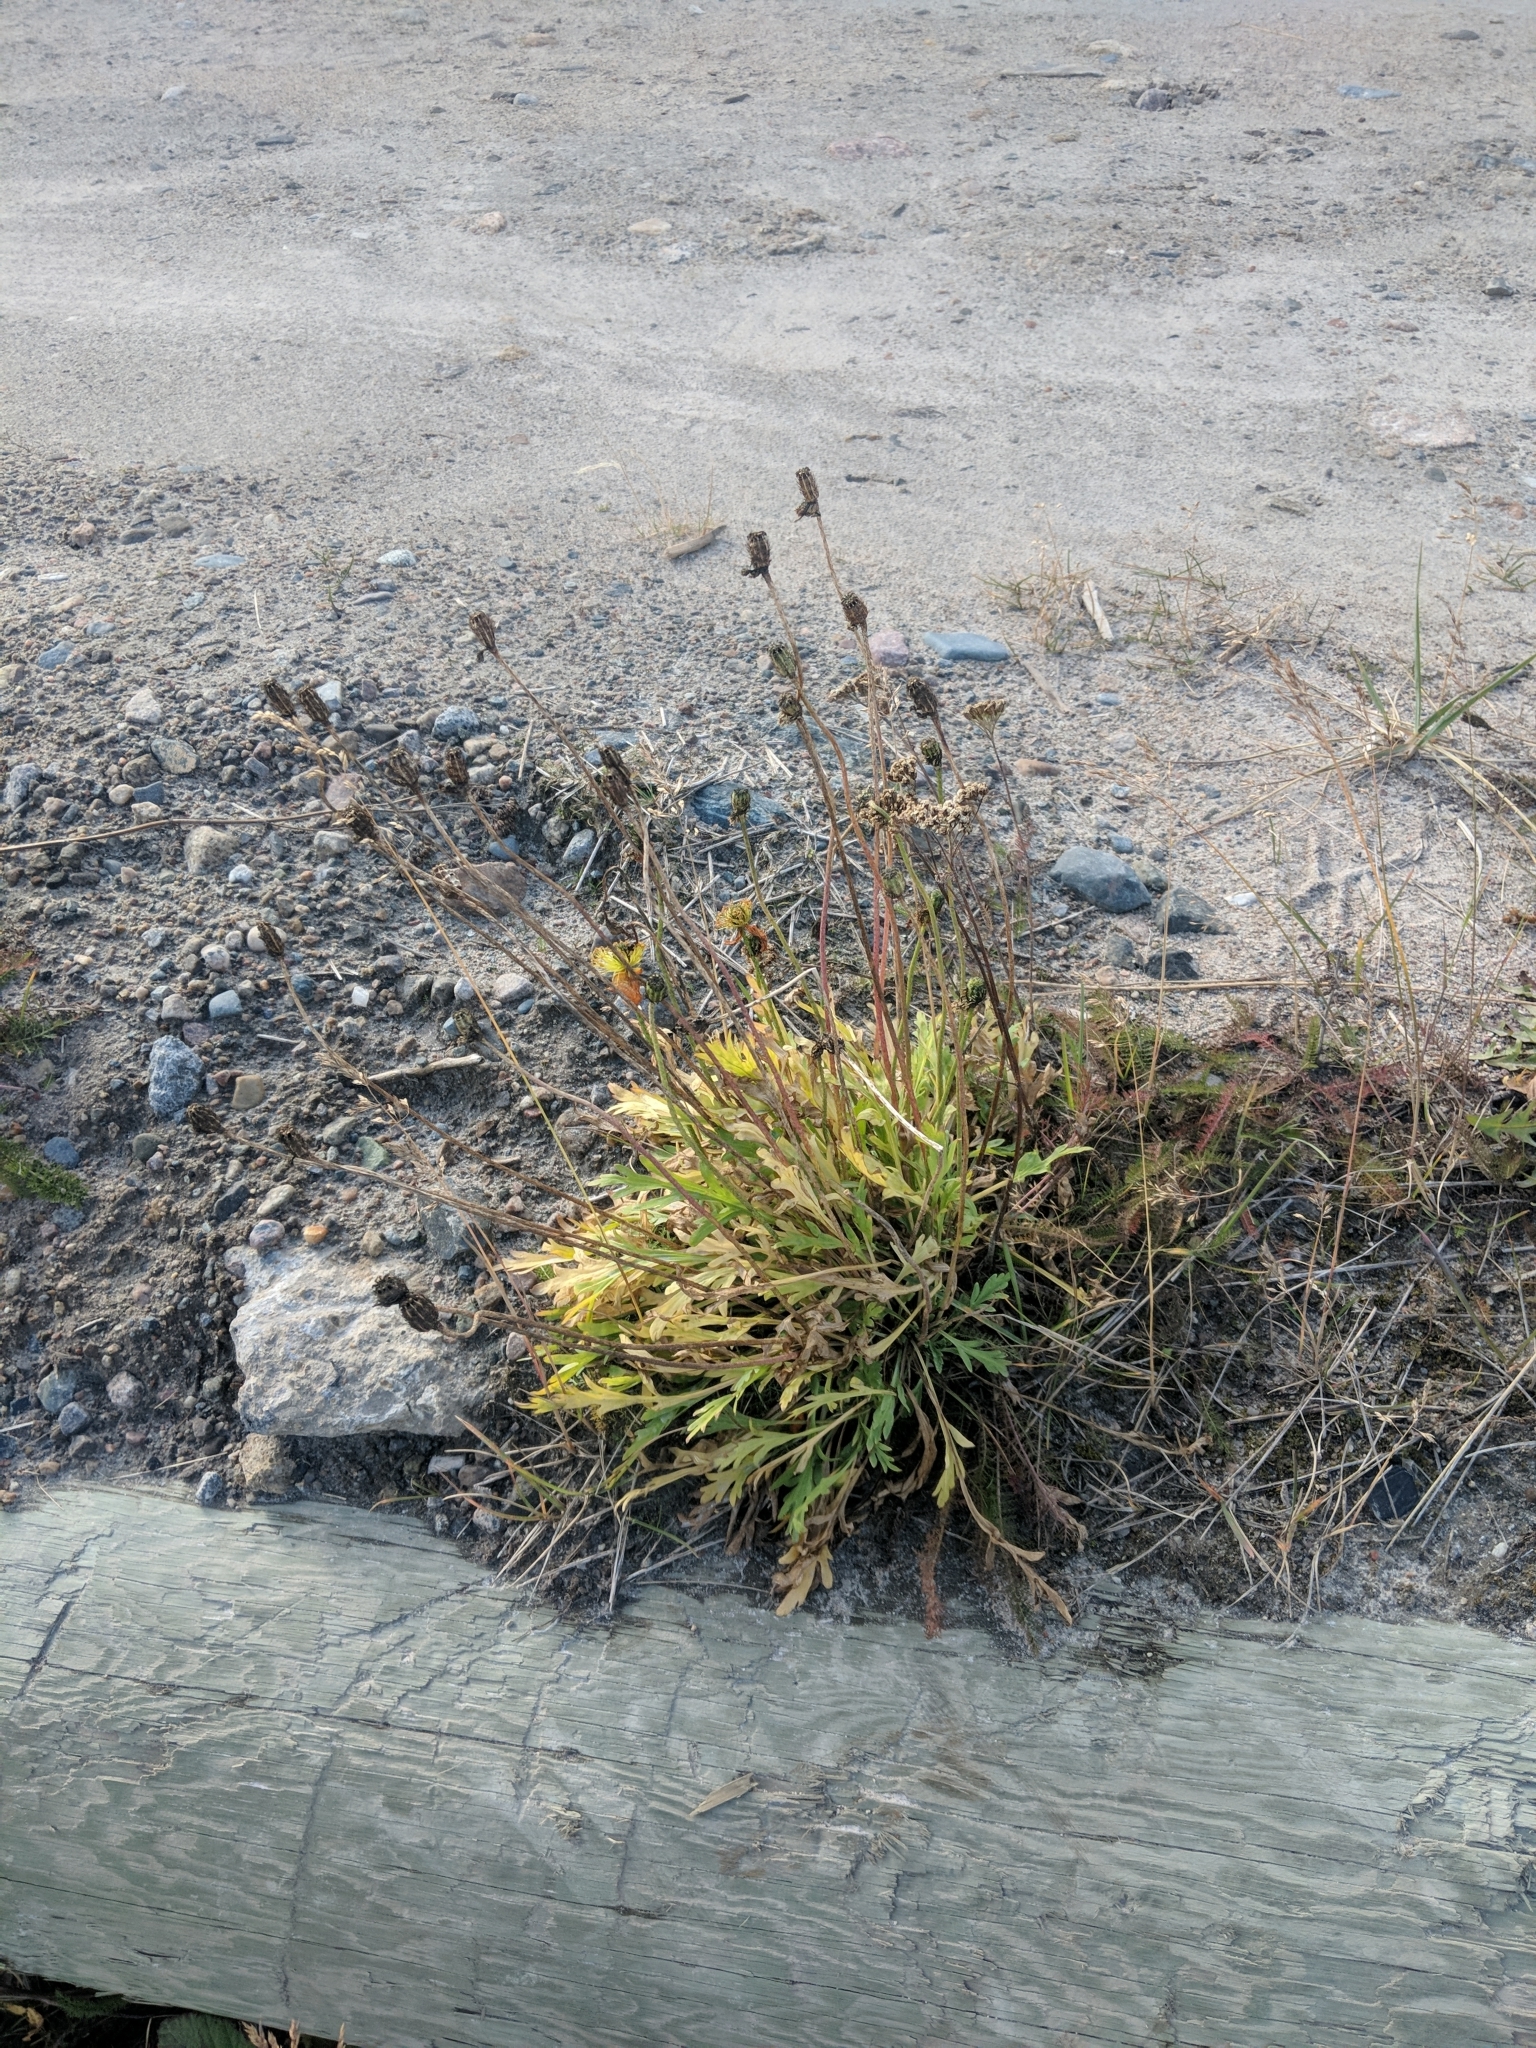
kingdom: Plantae
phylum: Tracheophyta
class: Magnoliopsida
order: Ranunculales
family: Papaveraceae
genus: Papaver
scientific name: Papaver nudicaule
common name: Arctic poppy
